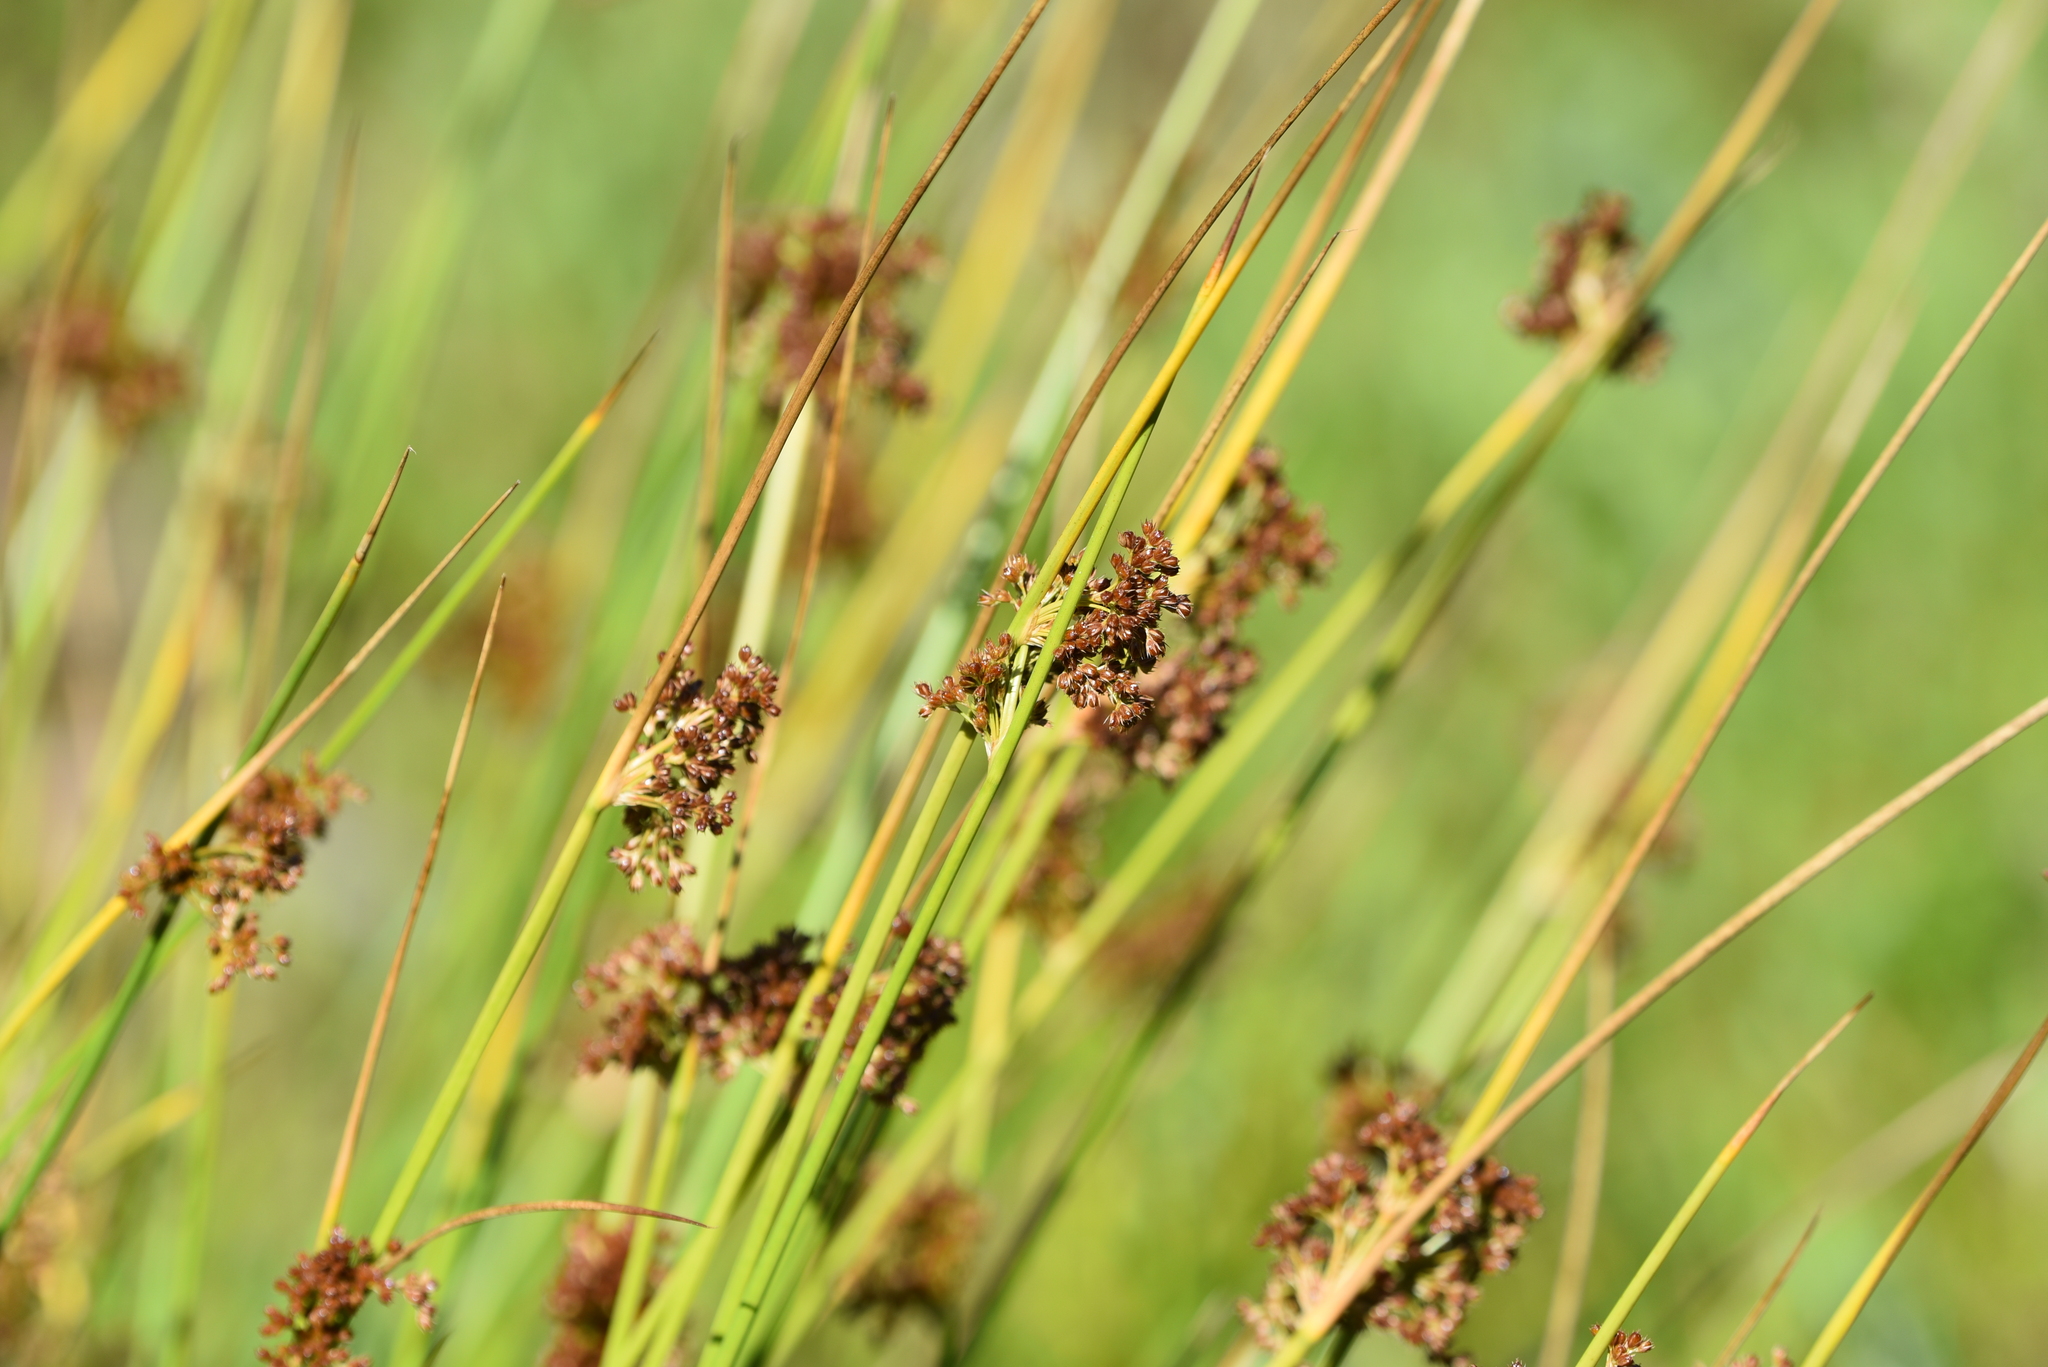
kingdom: Plantae
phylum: Tracheophyta
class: Liliopsida
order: Poales
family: Juncaceae
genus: Juncus
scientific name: Juncus effusus
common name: Soft rush
